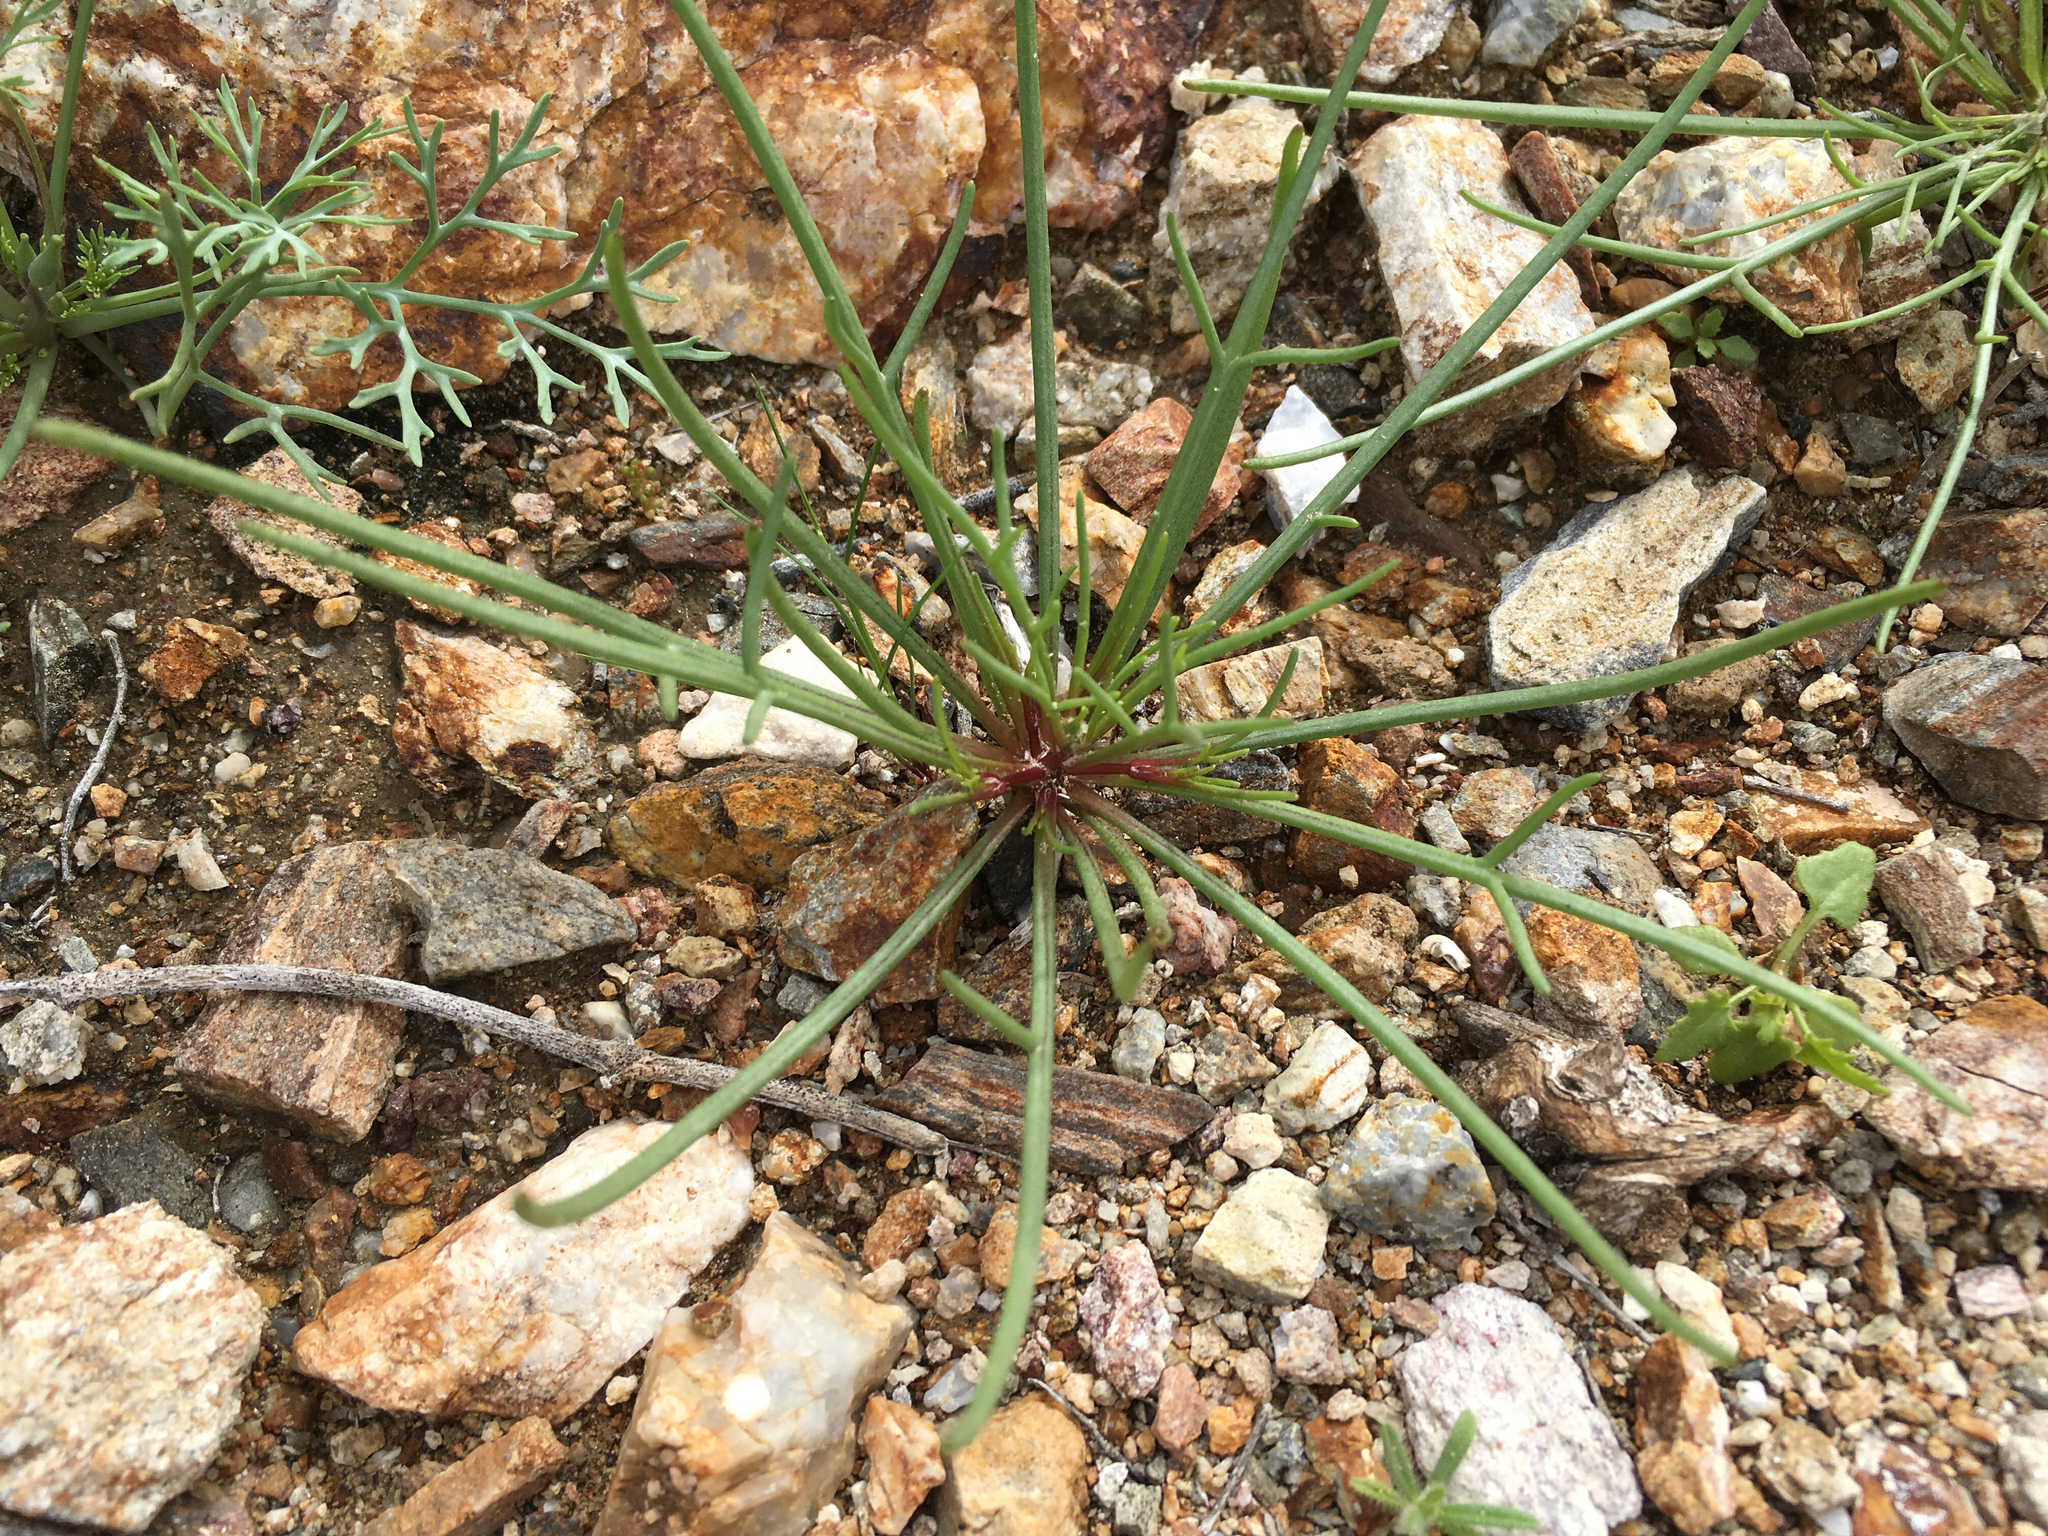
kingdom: Plantae
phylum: Tracheophyta
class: Magnoliopsida
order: Asterales
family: Asteraceae
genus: Malacothrix
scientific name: Malacothrix glabrata
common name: Smooth desert-dandelion
